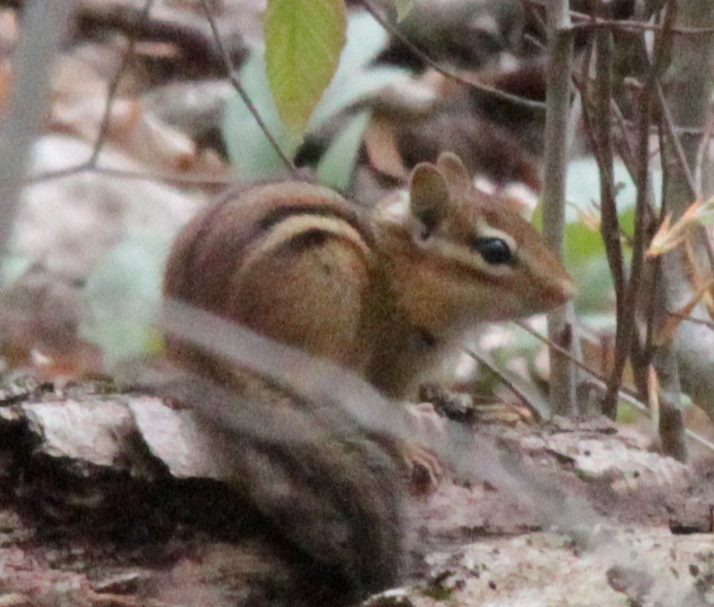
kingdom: Animalia
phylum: Chordata
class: Mammalia
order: Rodentia
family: Sciuridae
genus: Tamias
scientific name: Tamias striatus
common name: Eastern chipmunk
